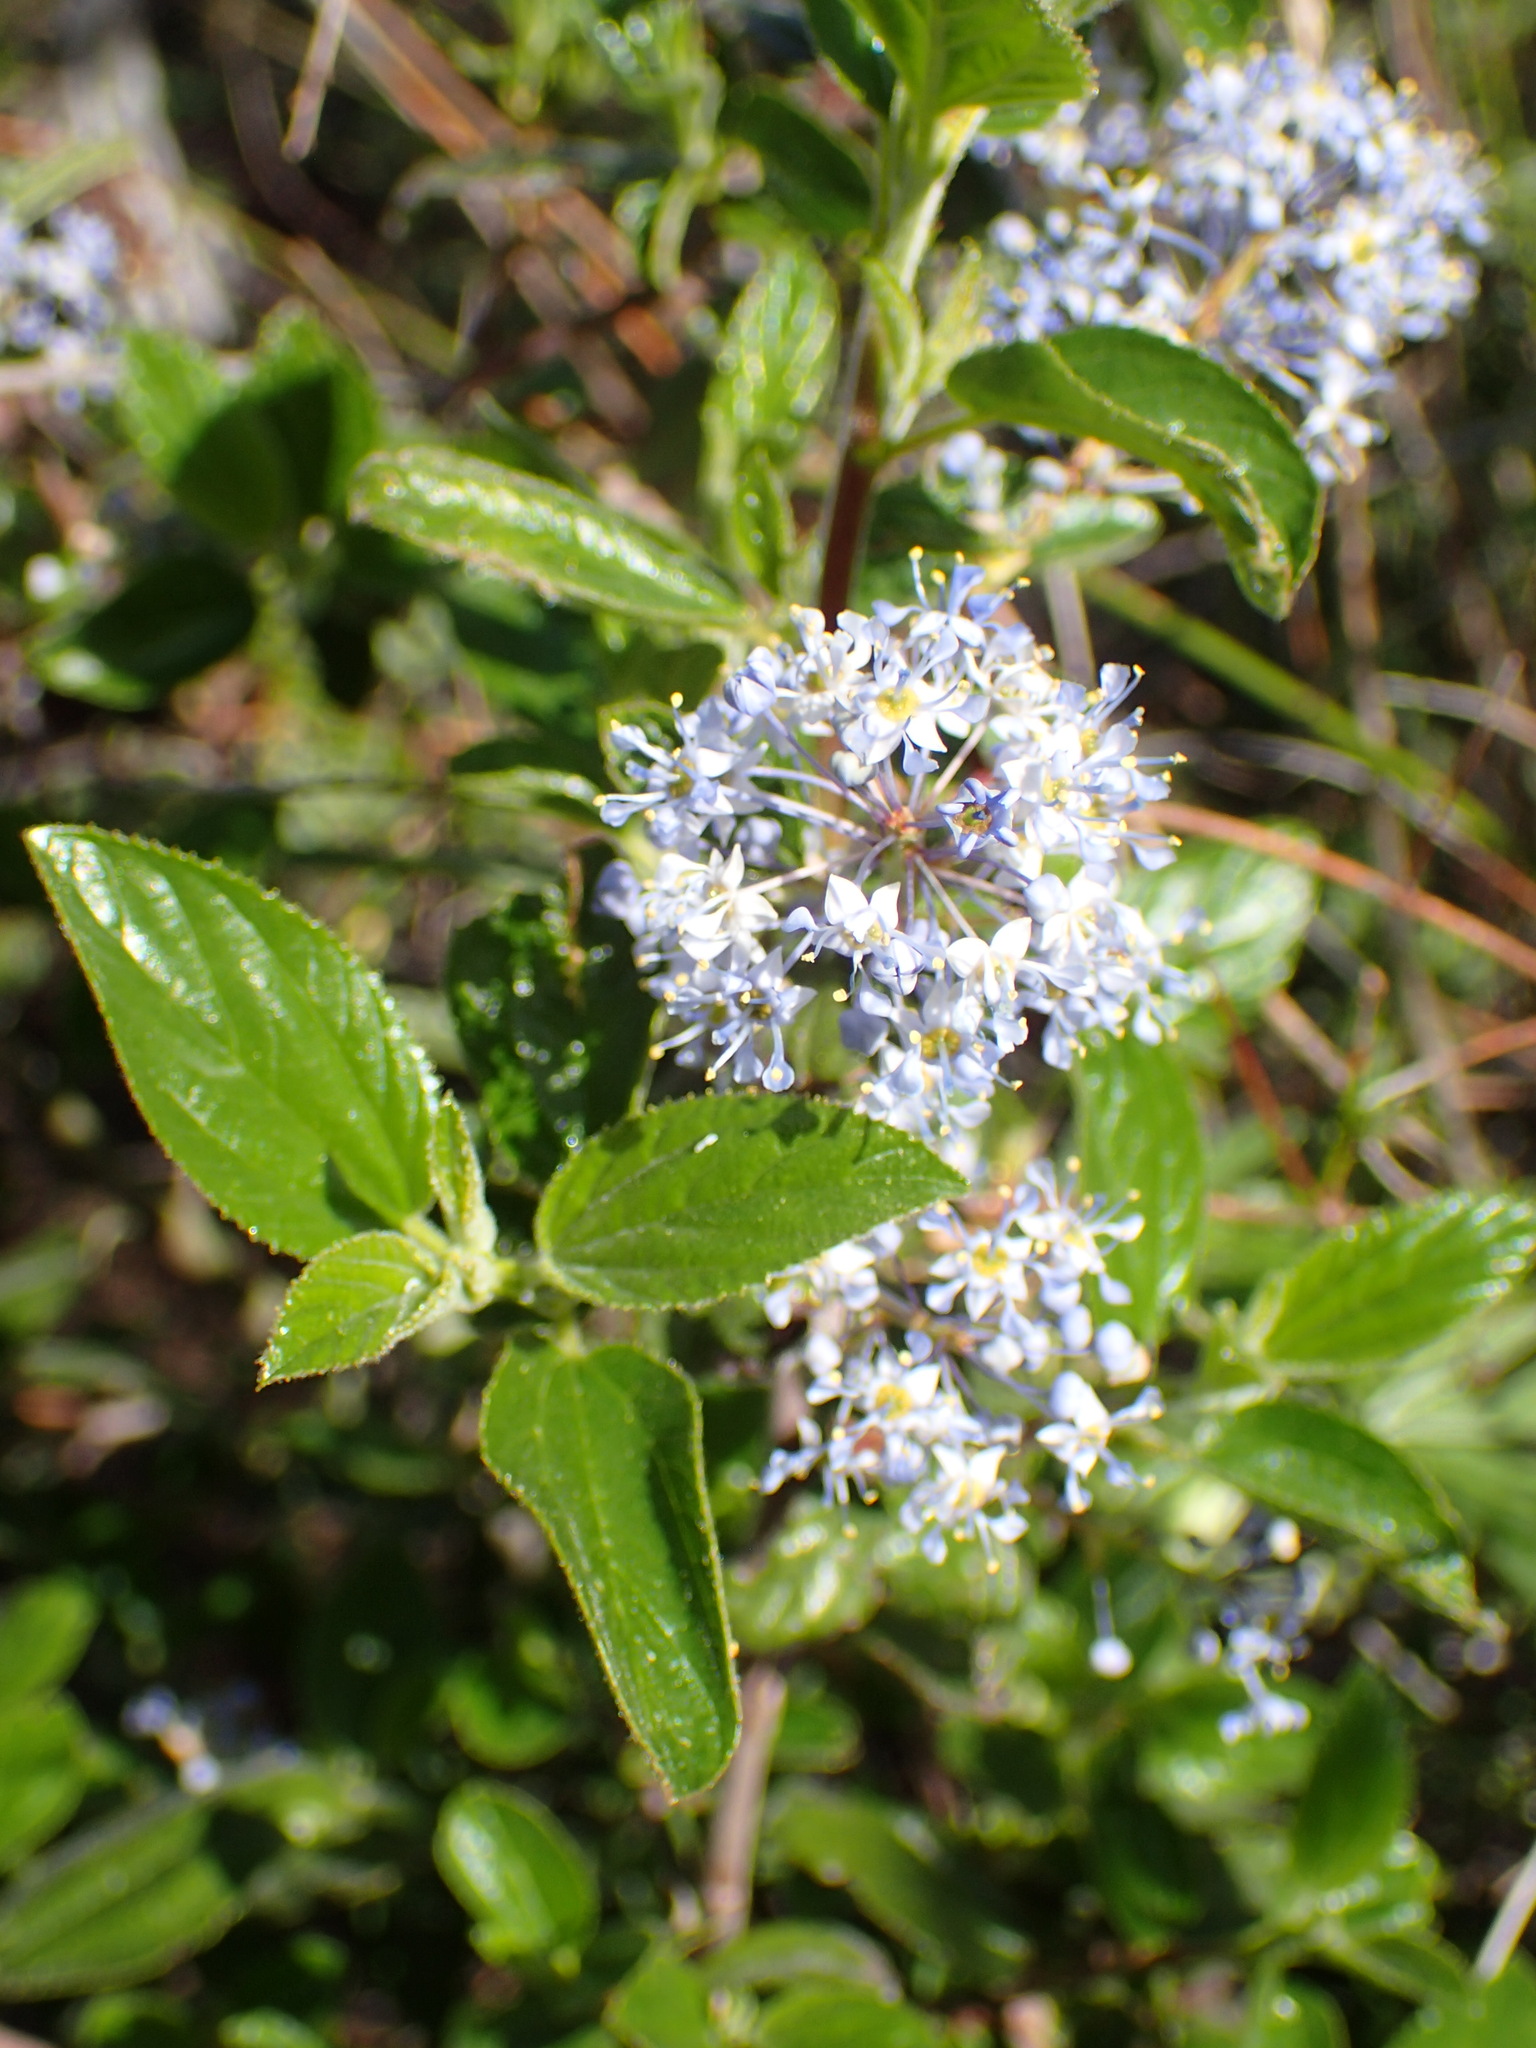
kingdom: Plantae
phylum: Tracheophyta
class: Magnoliopsida
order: Rosales
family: Rhamnaceae
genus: Ceanothus
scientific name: Ceanothus oliganthus
